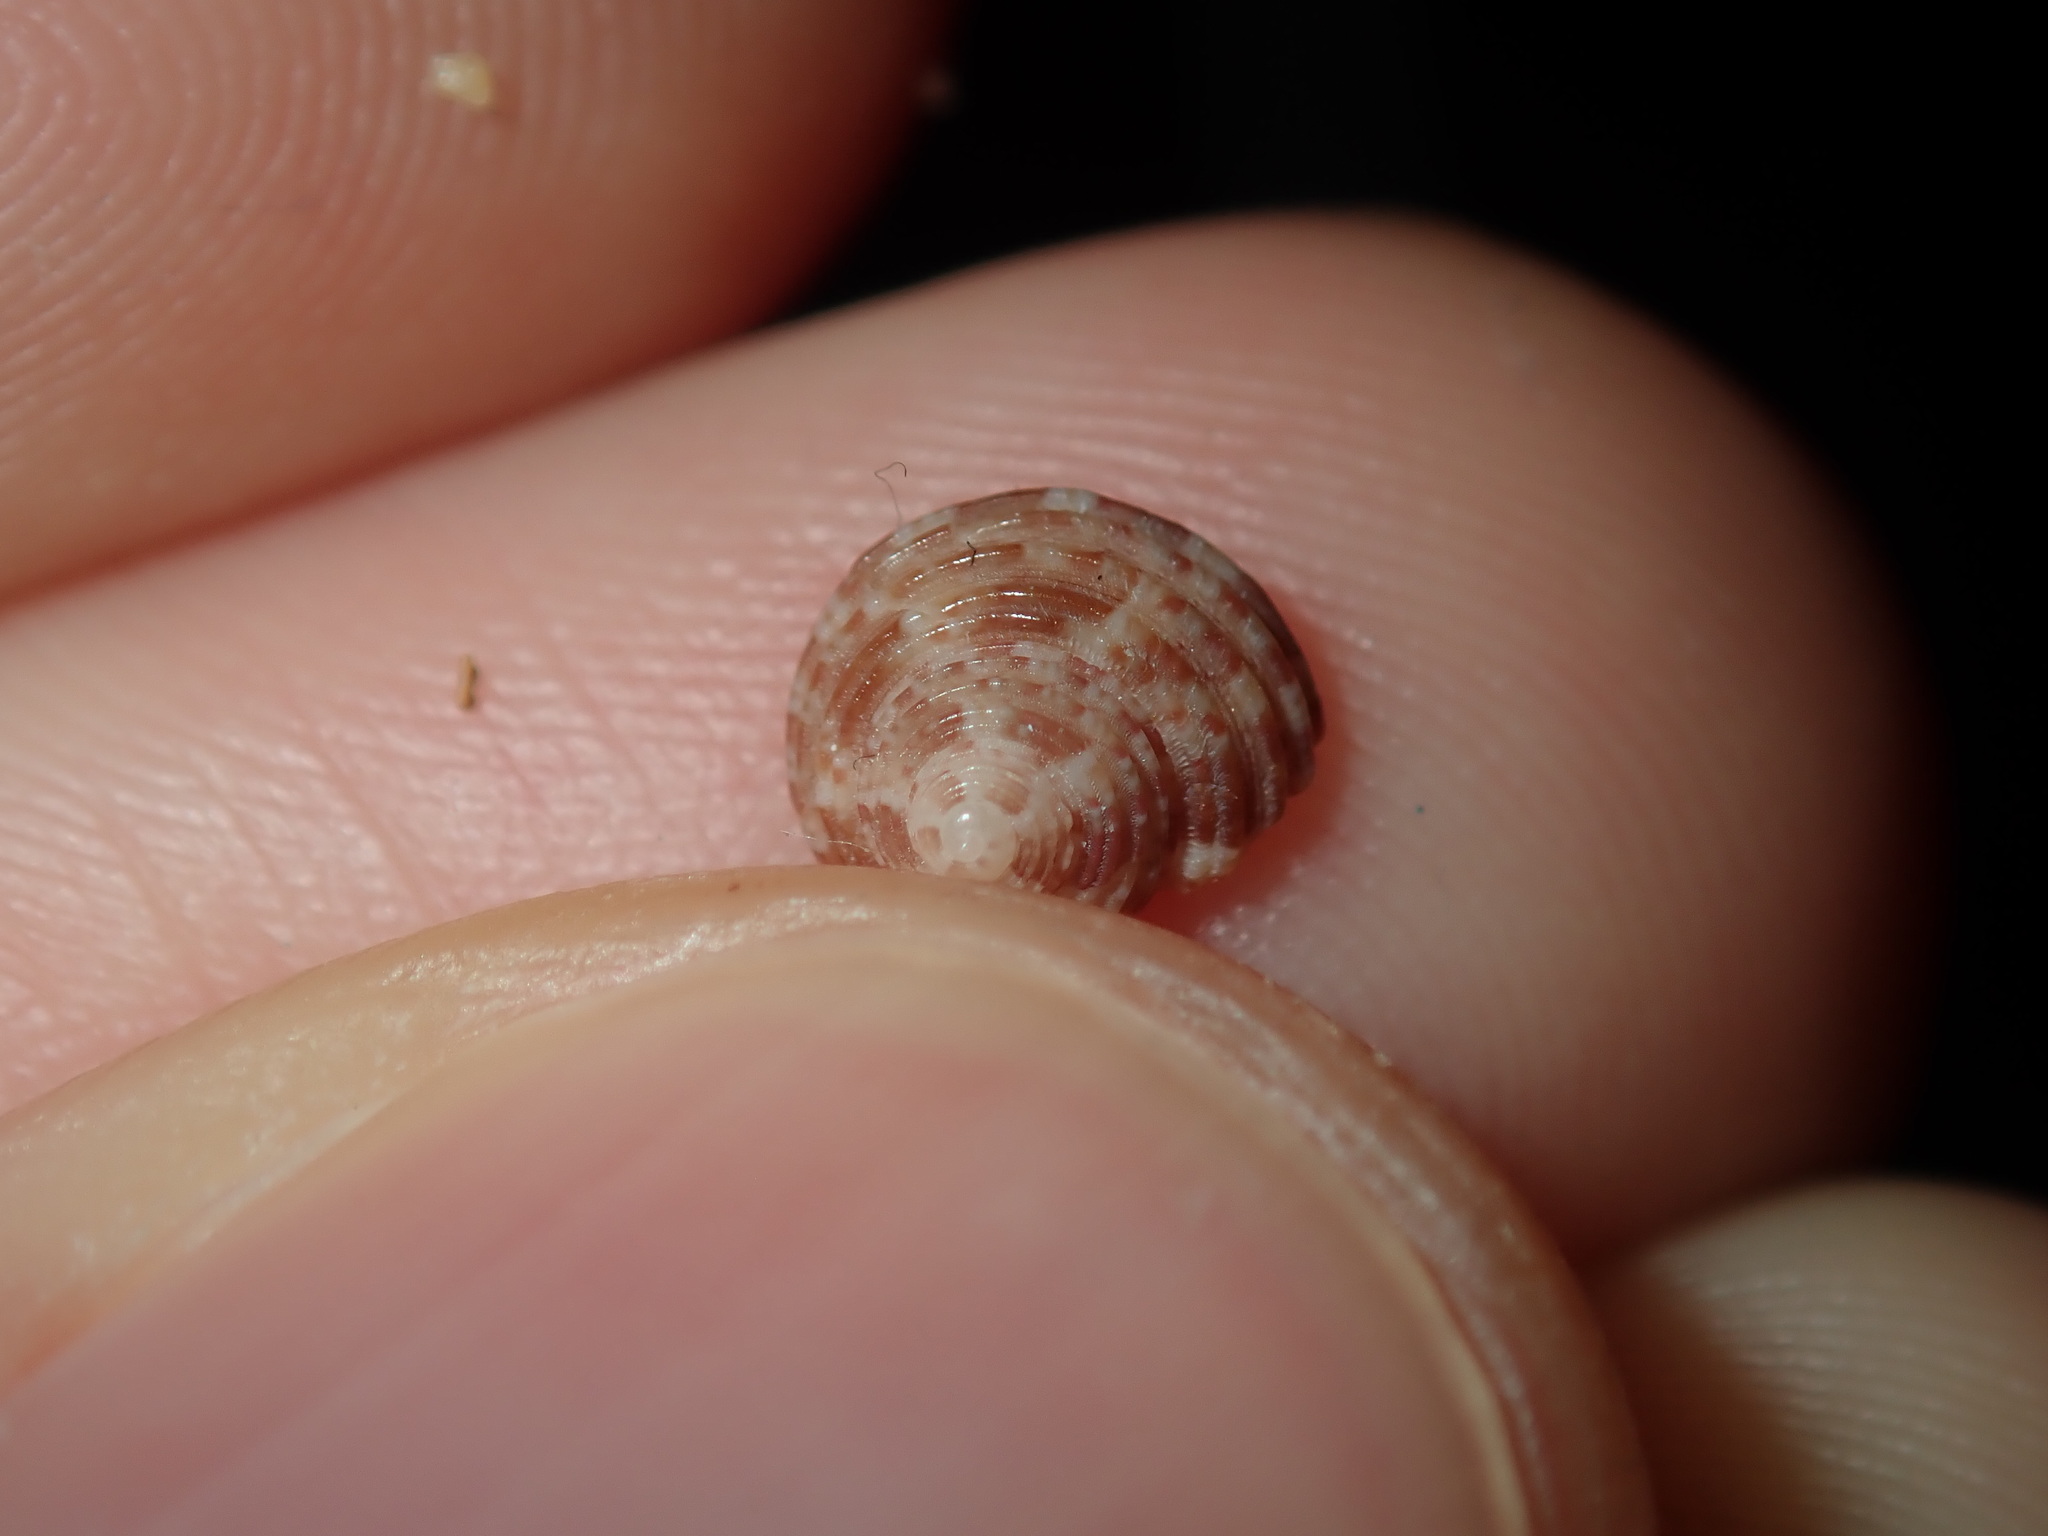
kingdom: Animalia
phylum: Mollusca
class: Gastropoda
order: Trochida
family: Trochidae
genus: Eurytrochus
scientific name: Eurytrochus strangei
